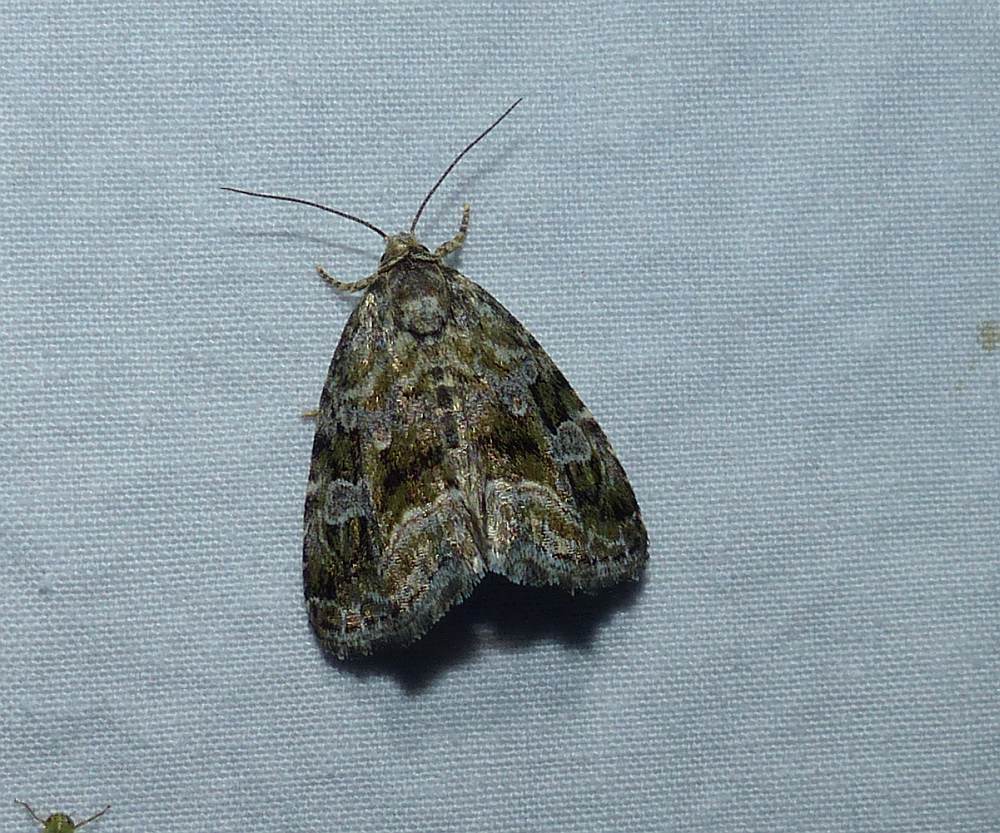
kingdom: Animalia
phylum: Arthropoda
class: Insecta
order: Lepidoptera
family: Noctuidae
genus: Protodeltote
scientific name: Protodeltote muscosula
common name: Large mossy glyph
